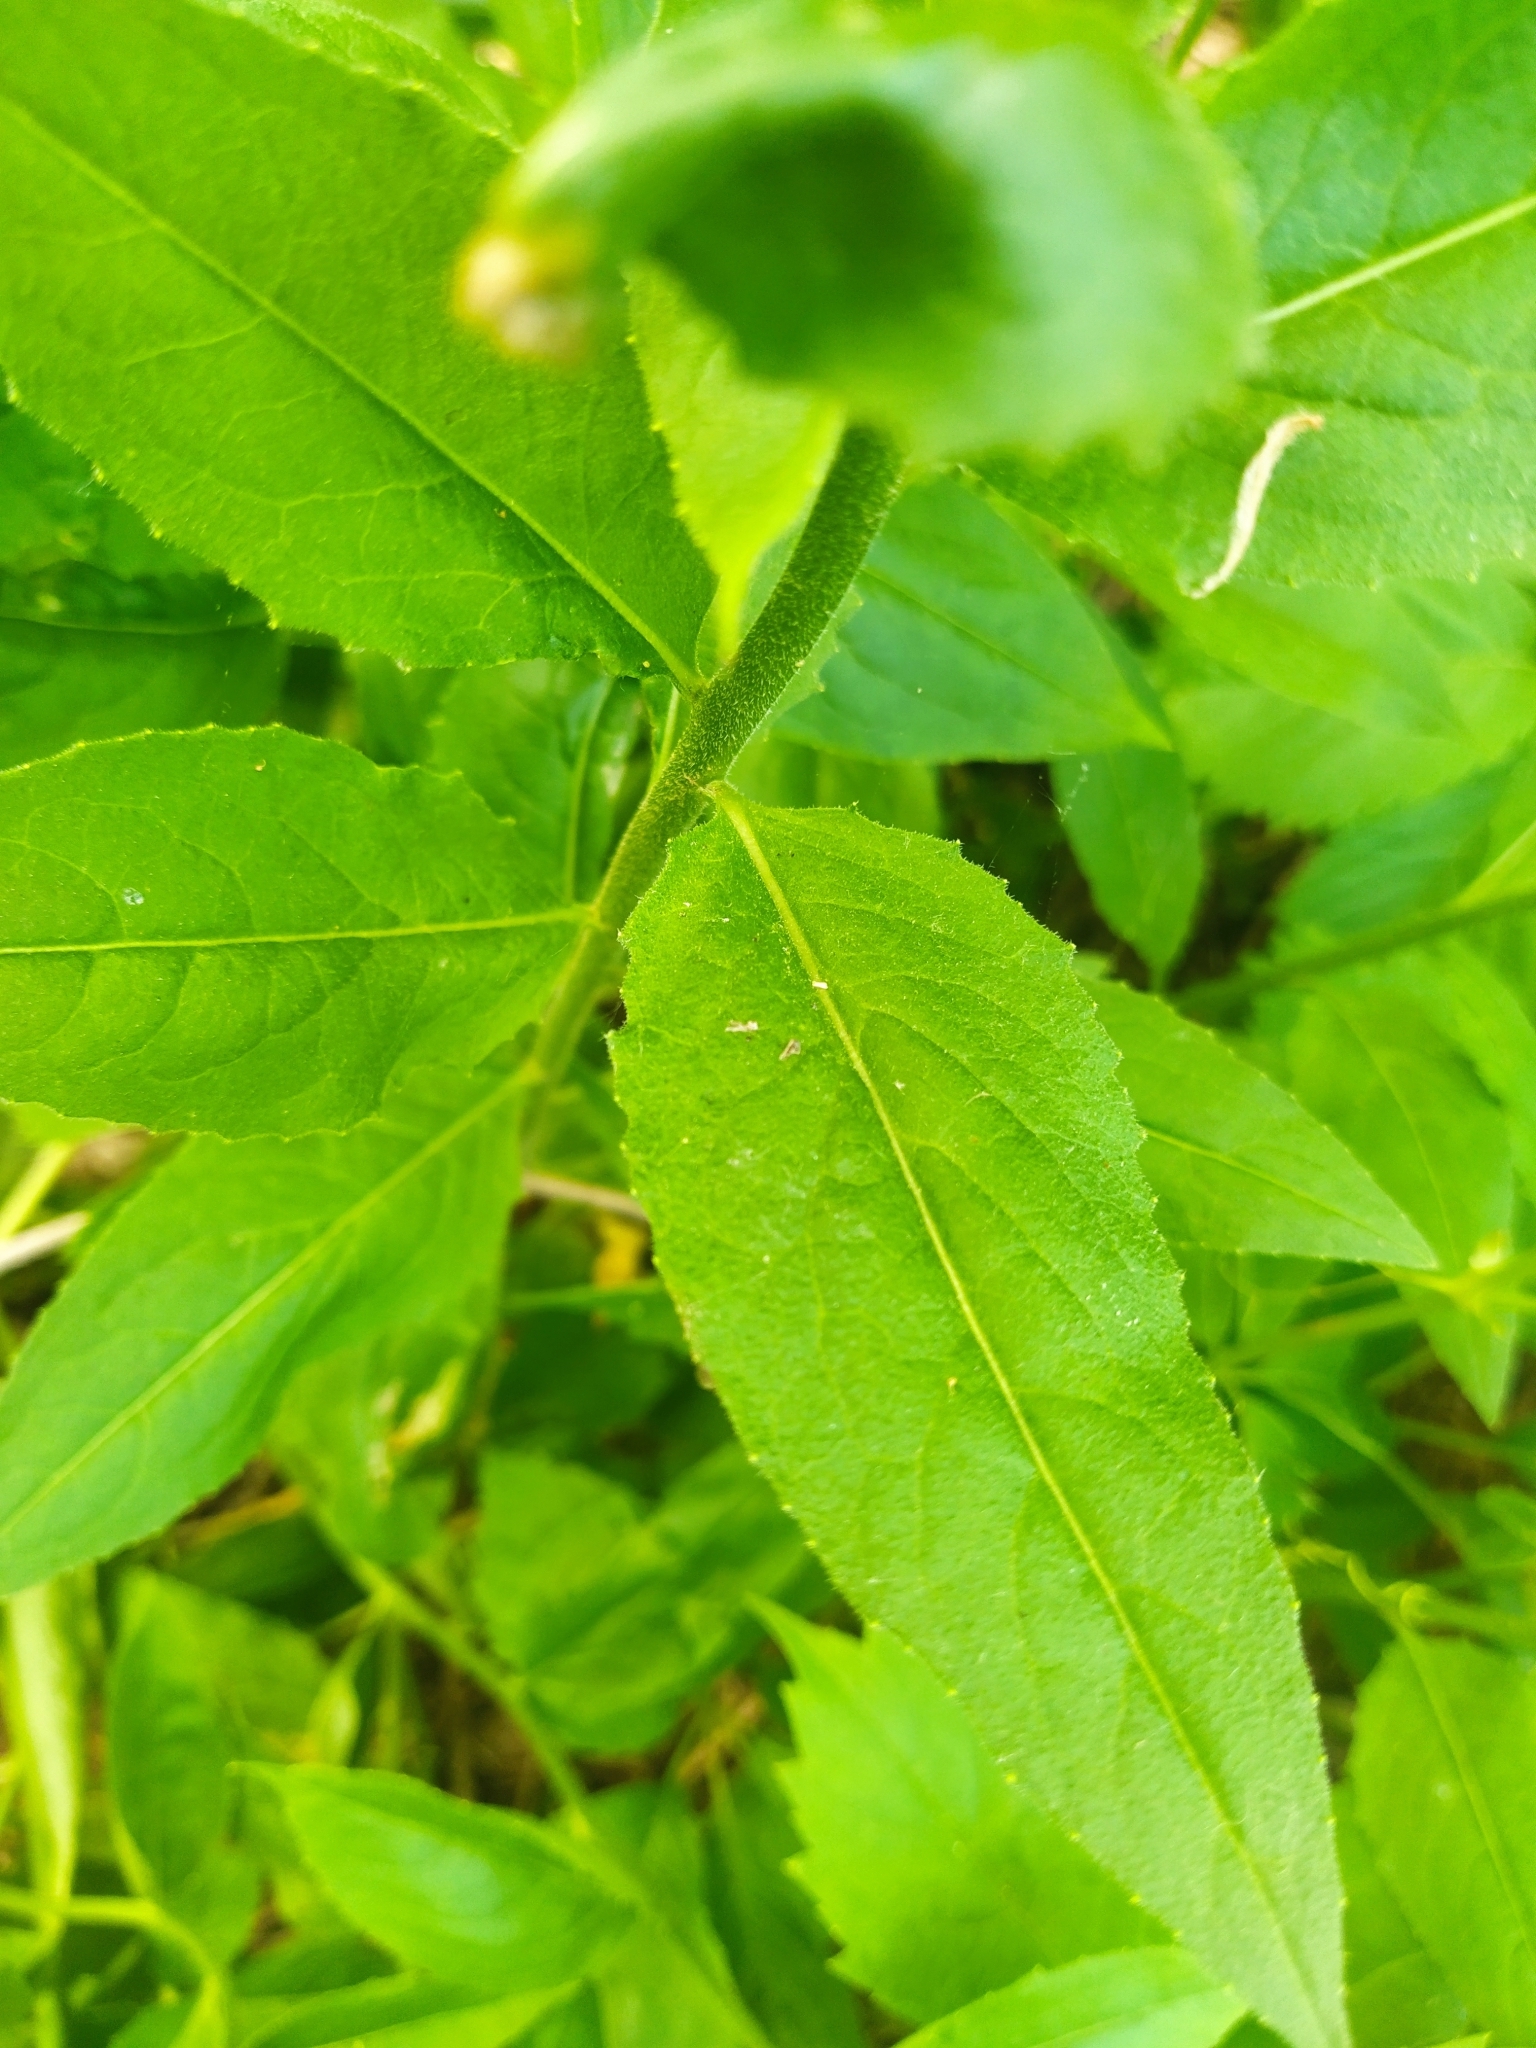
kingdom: Plantae
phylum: Tracheophyta
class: Magnoliopsida
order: Brassicales
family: Brassicaceae
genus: Hesperis
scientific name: Hesperis matronalis
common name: Dame's-violet
